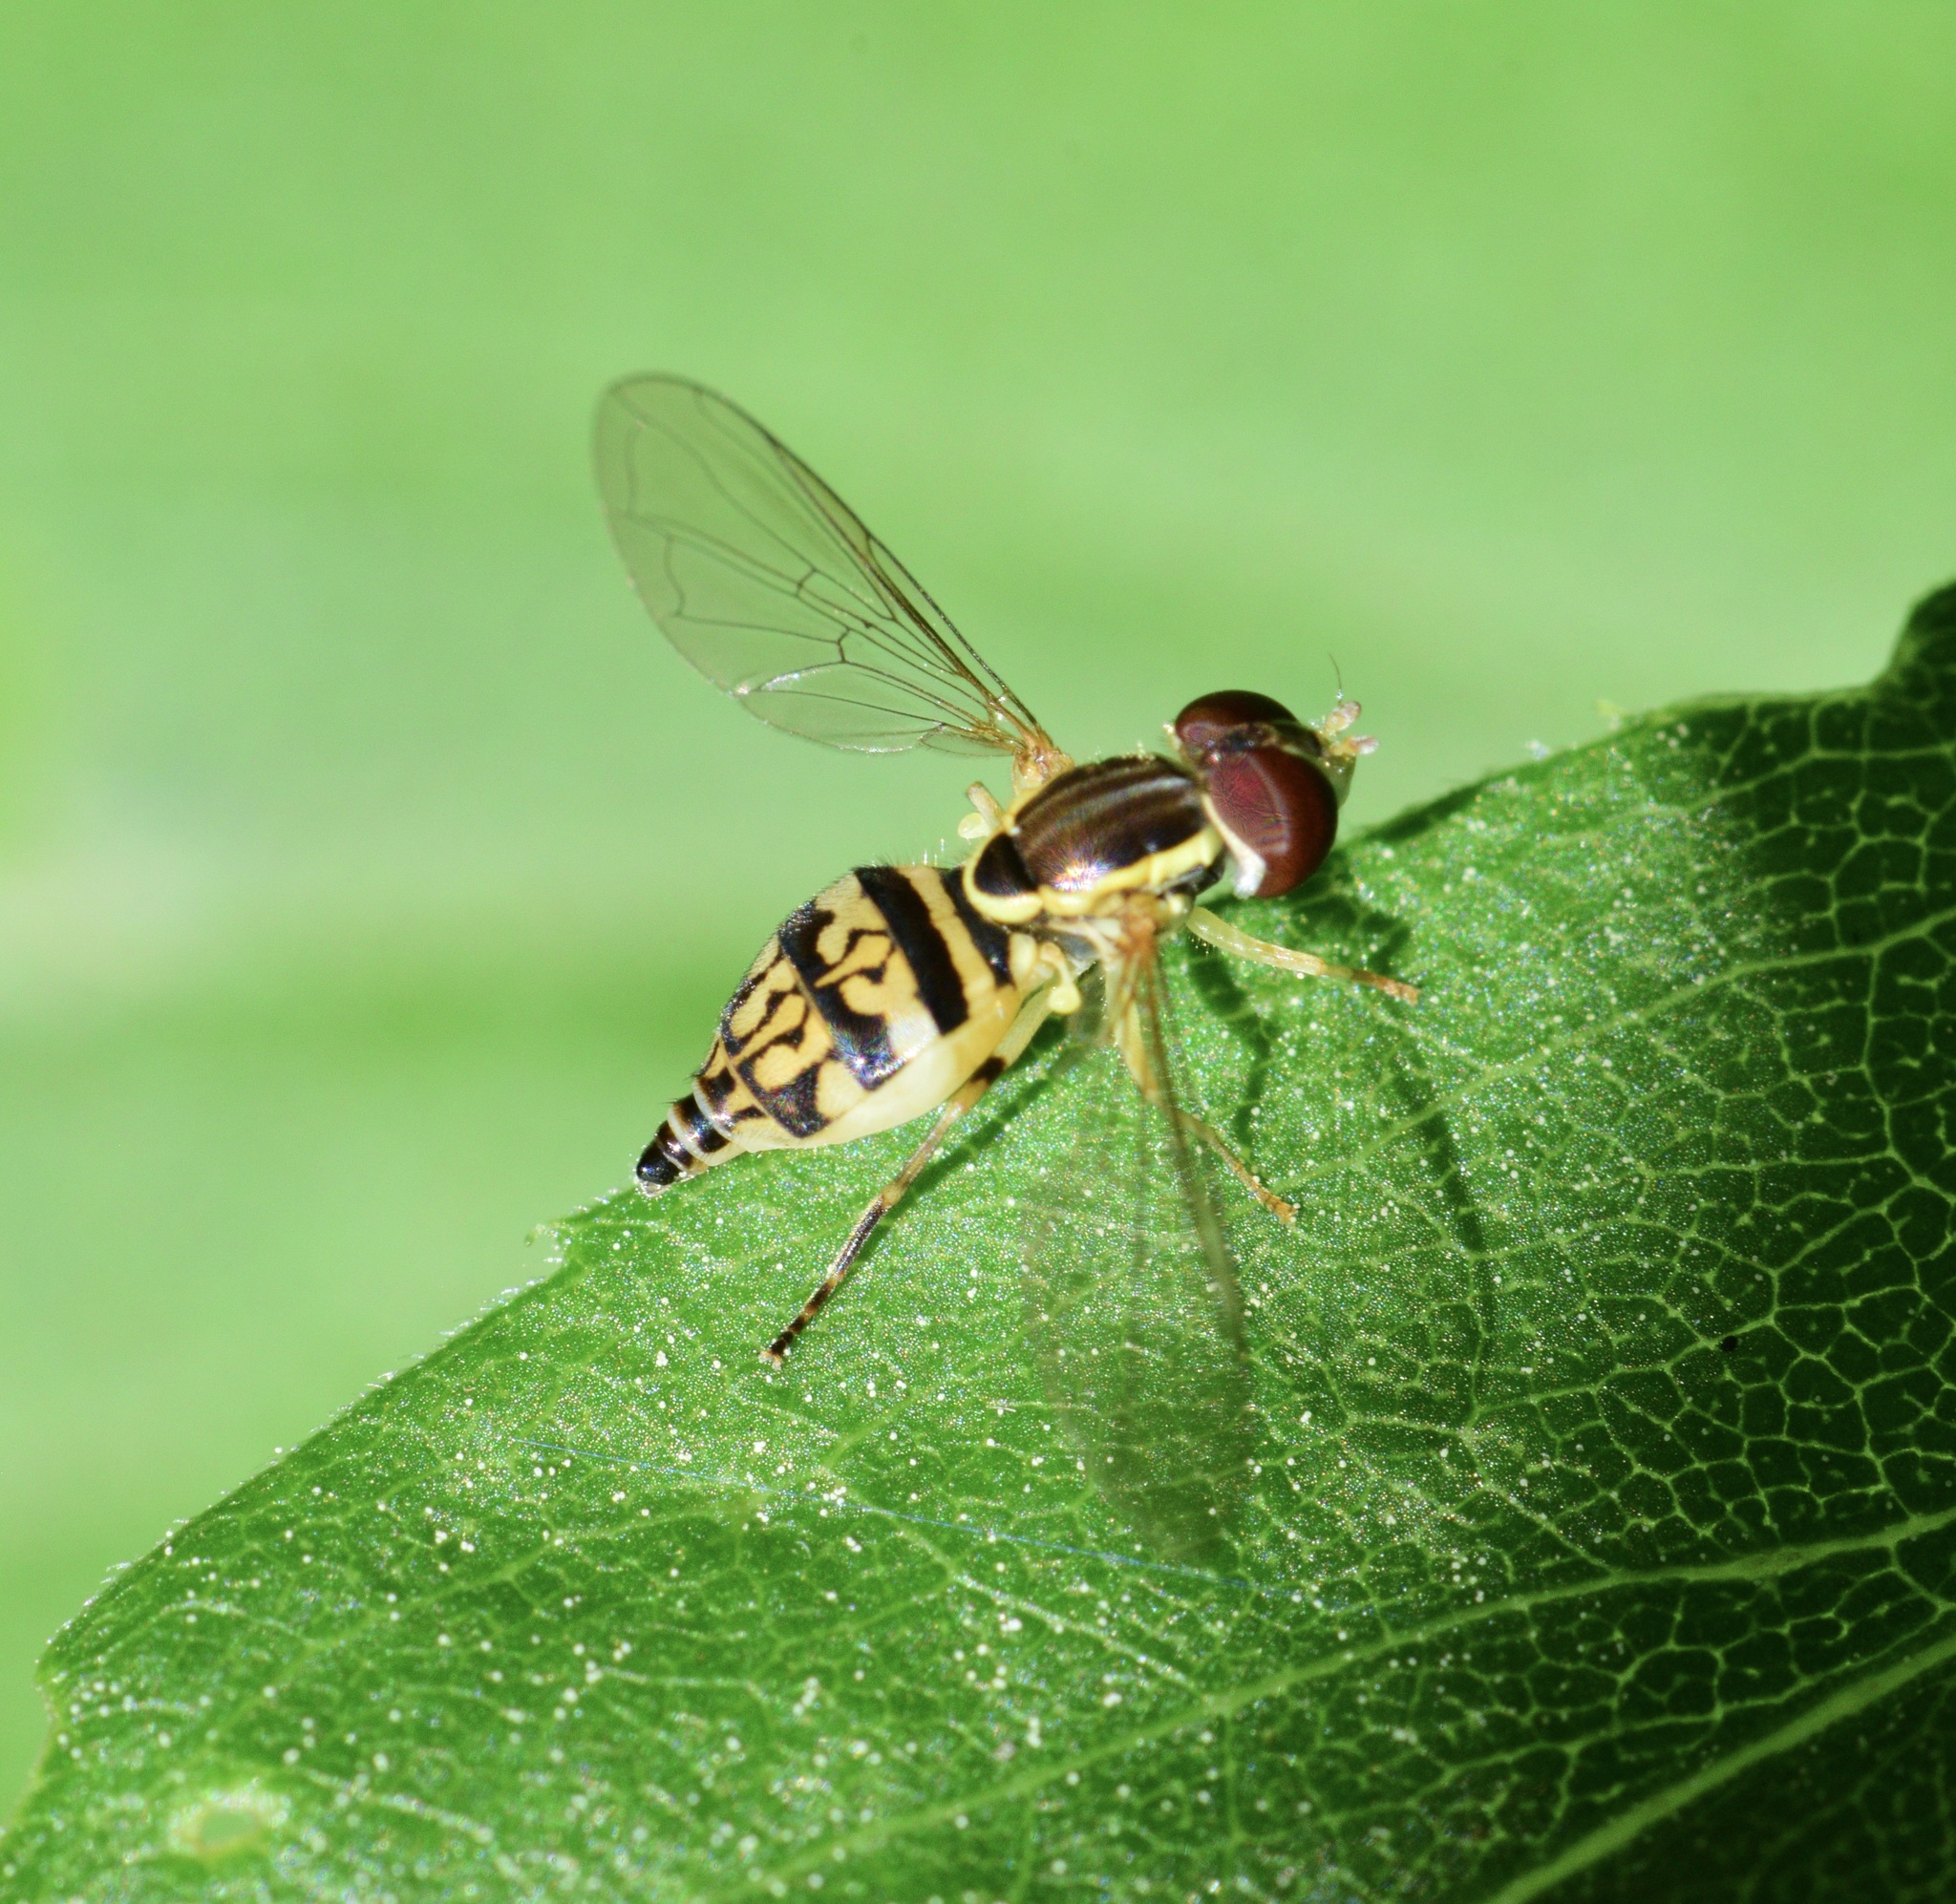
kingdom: Animalia
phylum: Arthropoda
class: Insecta
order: Diptera
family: Syrphidae
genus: Toxomerus
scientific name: Toxomerus geminatus
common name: Eastern calligrapher
